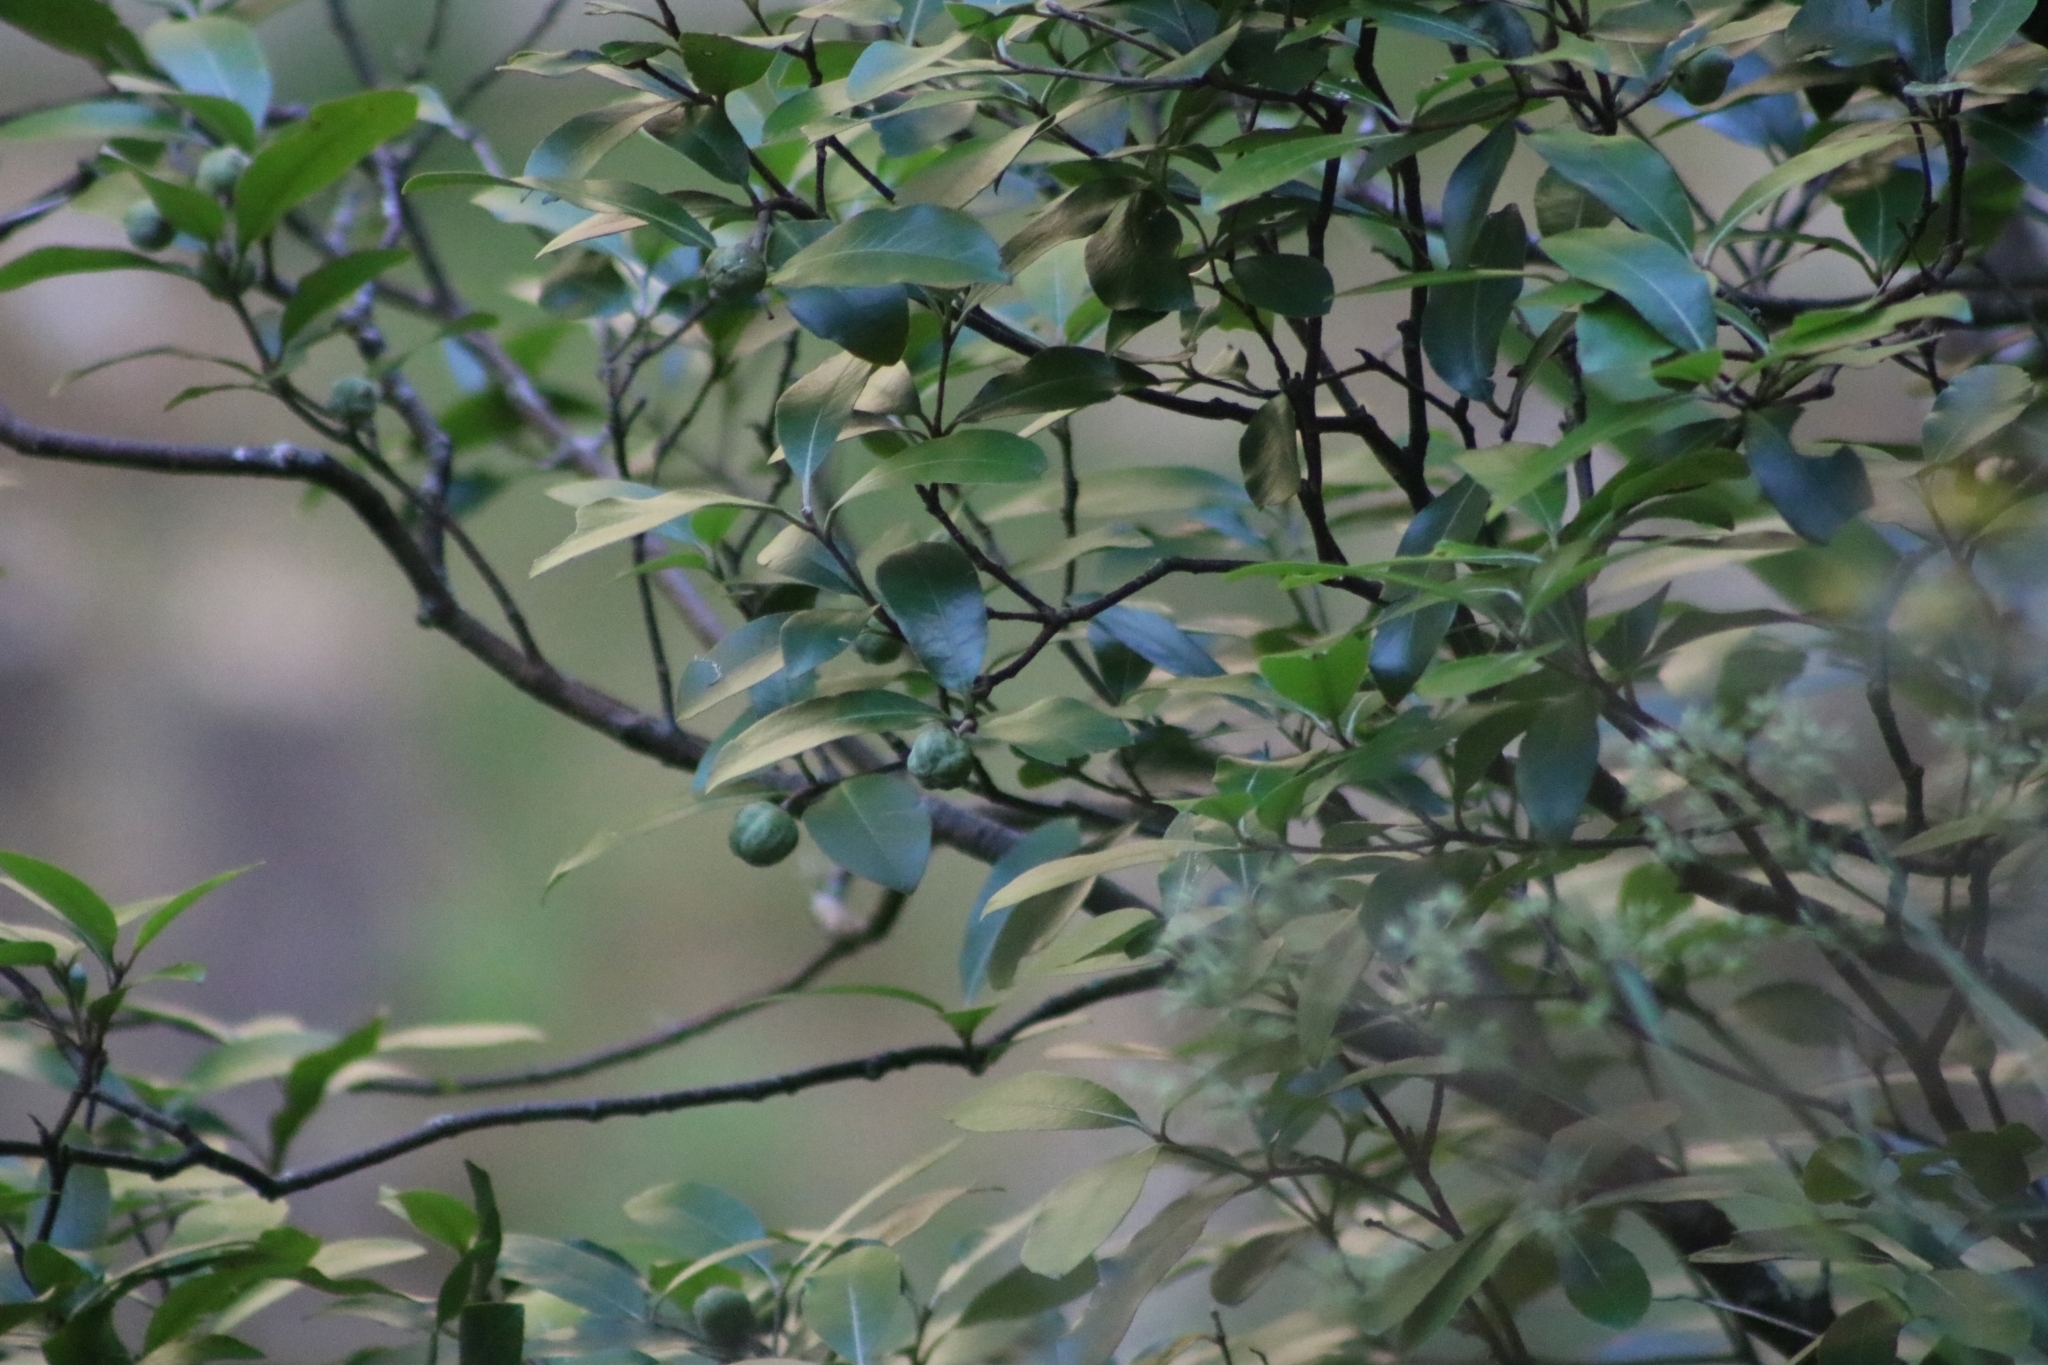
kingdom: Plantae
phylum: Tracheophyta
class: Magnoliopsida
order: Apiales
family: Pittosporaceae
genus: Pittosporum
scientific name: Pittosporum huttonianum
